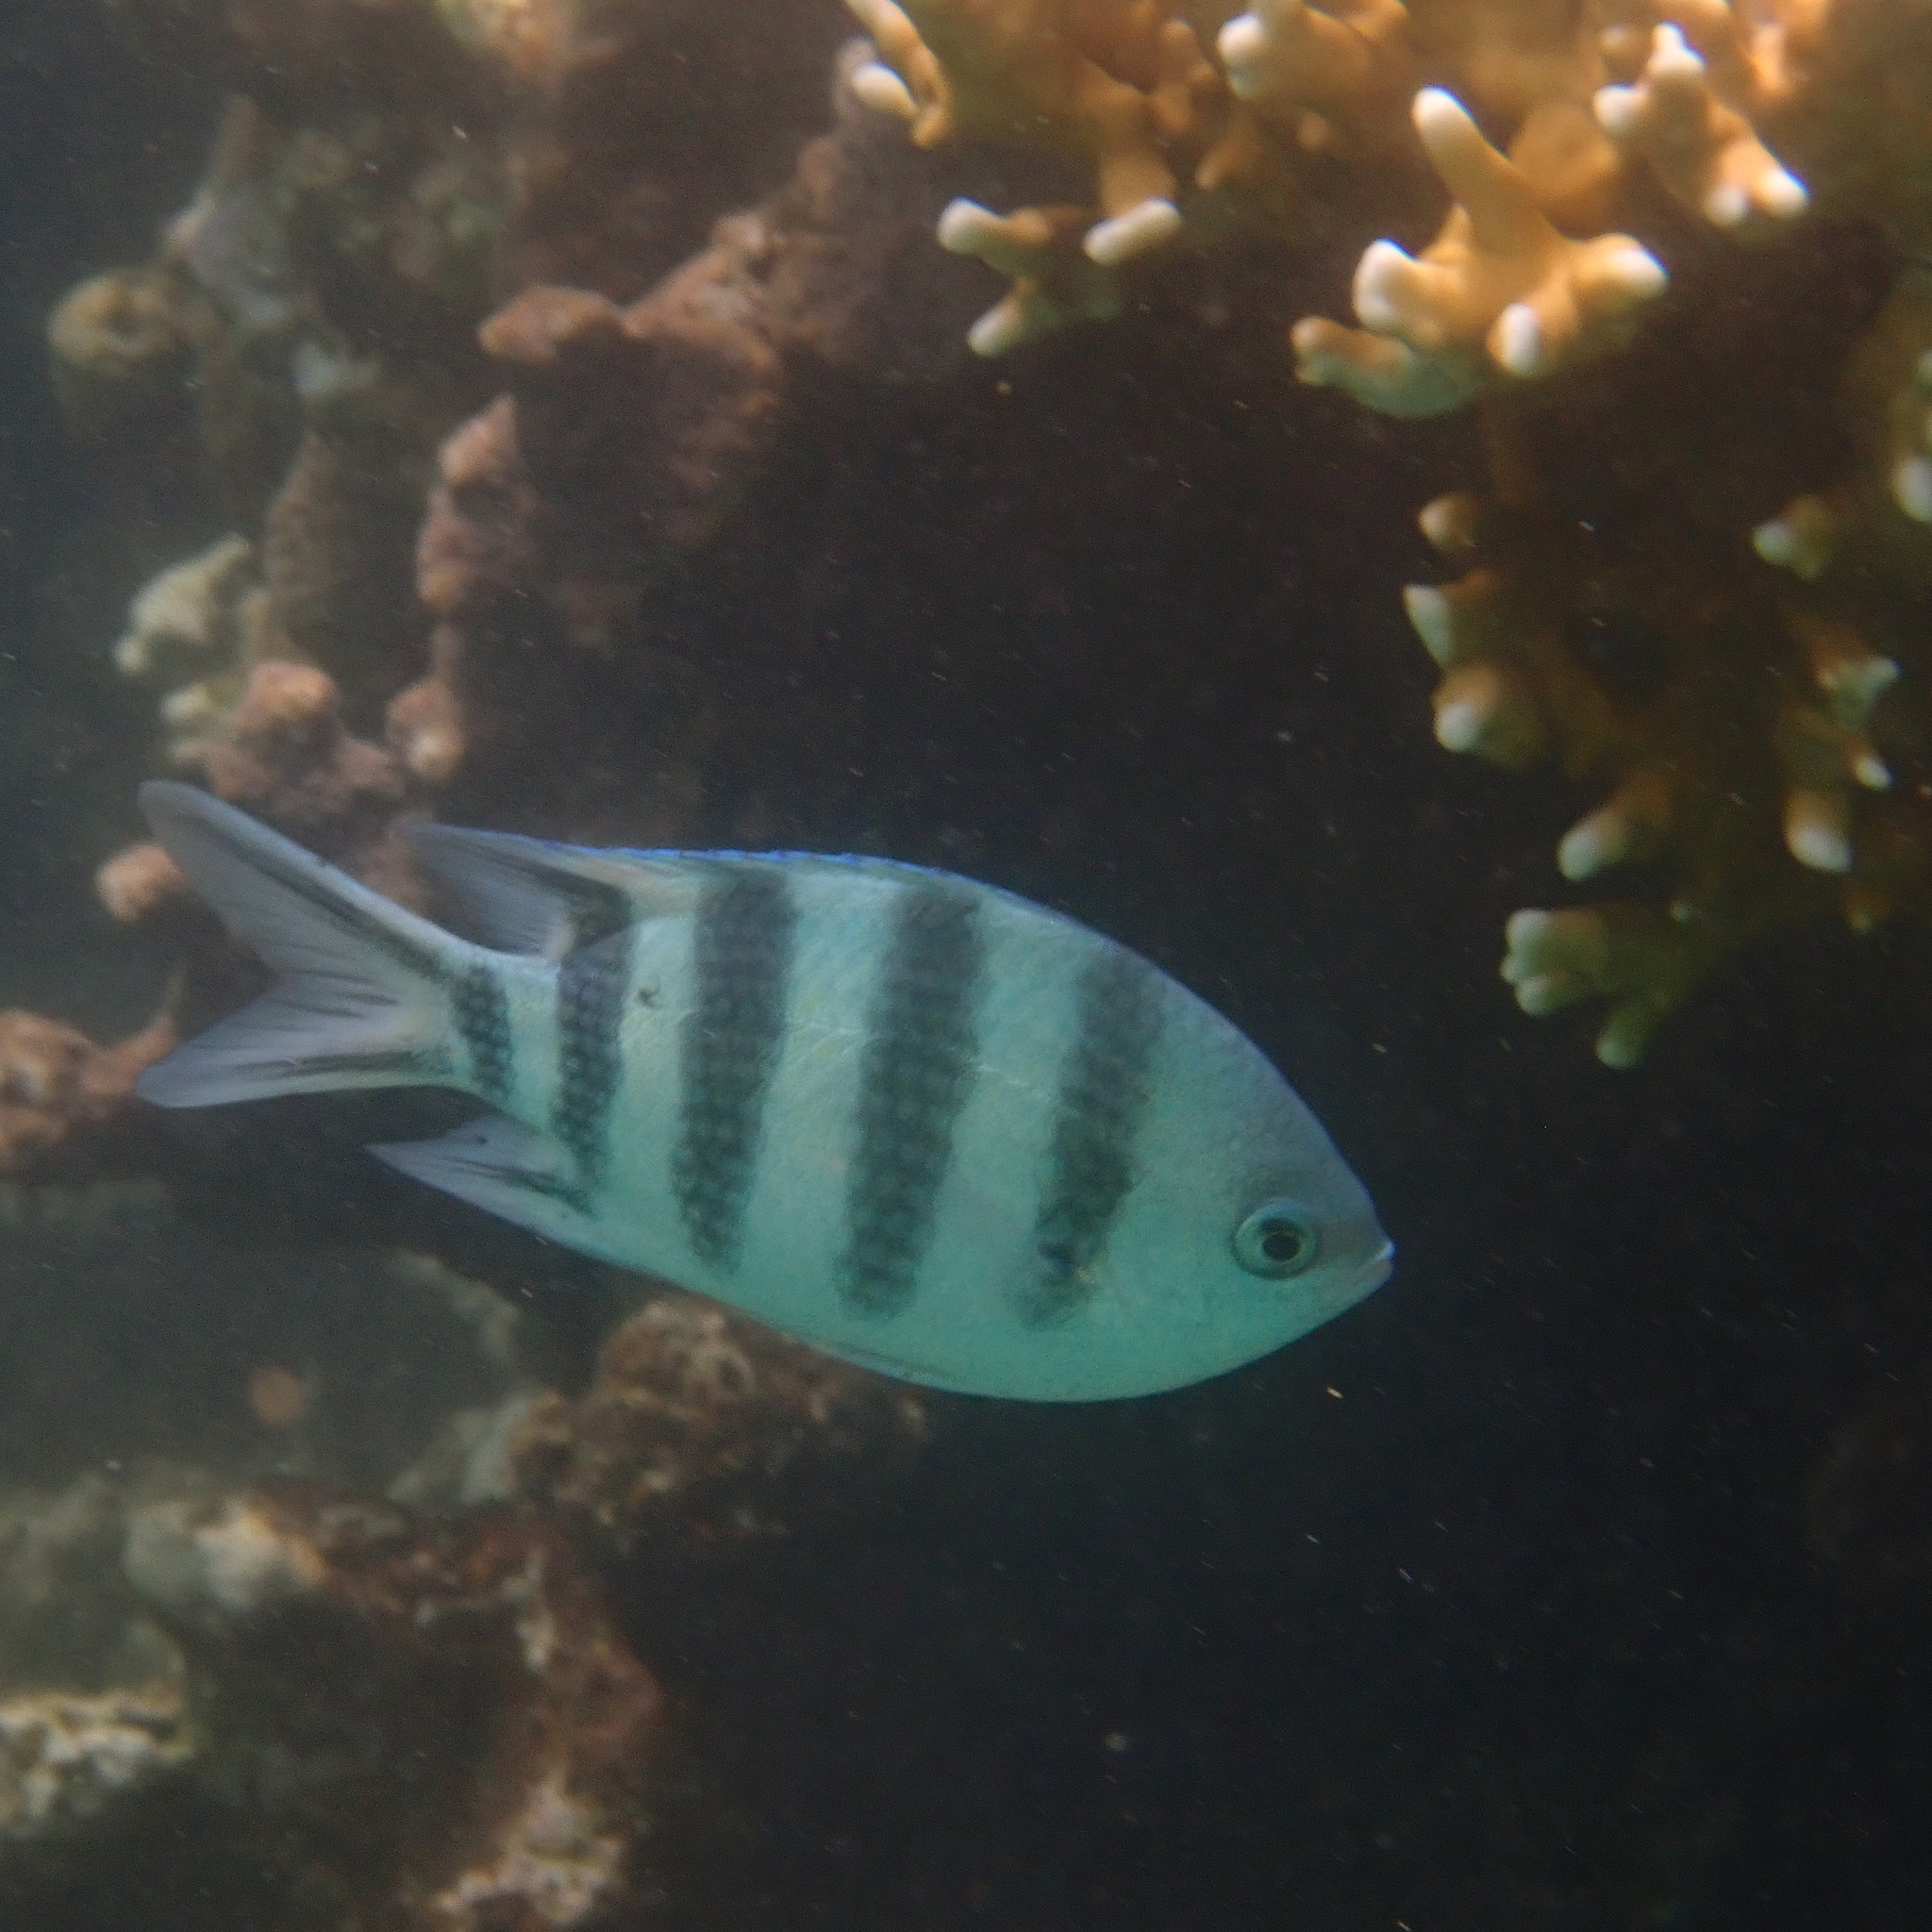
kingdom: Animalia
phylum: Chordata
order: Perciformes
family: Pomacentridae
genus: Abudefduf
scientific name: Abudefduf sexfasciatus
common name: Scissortail sergeant
